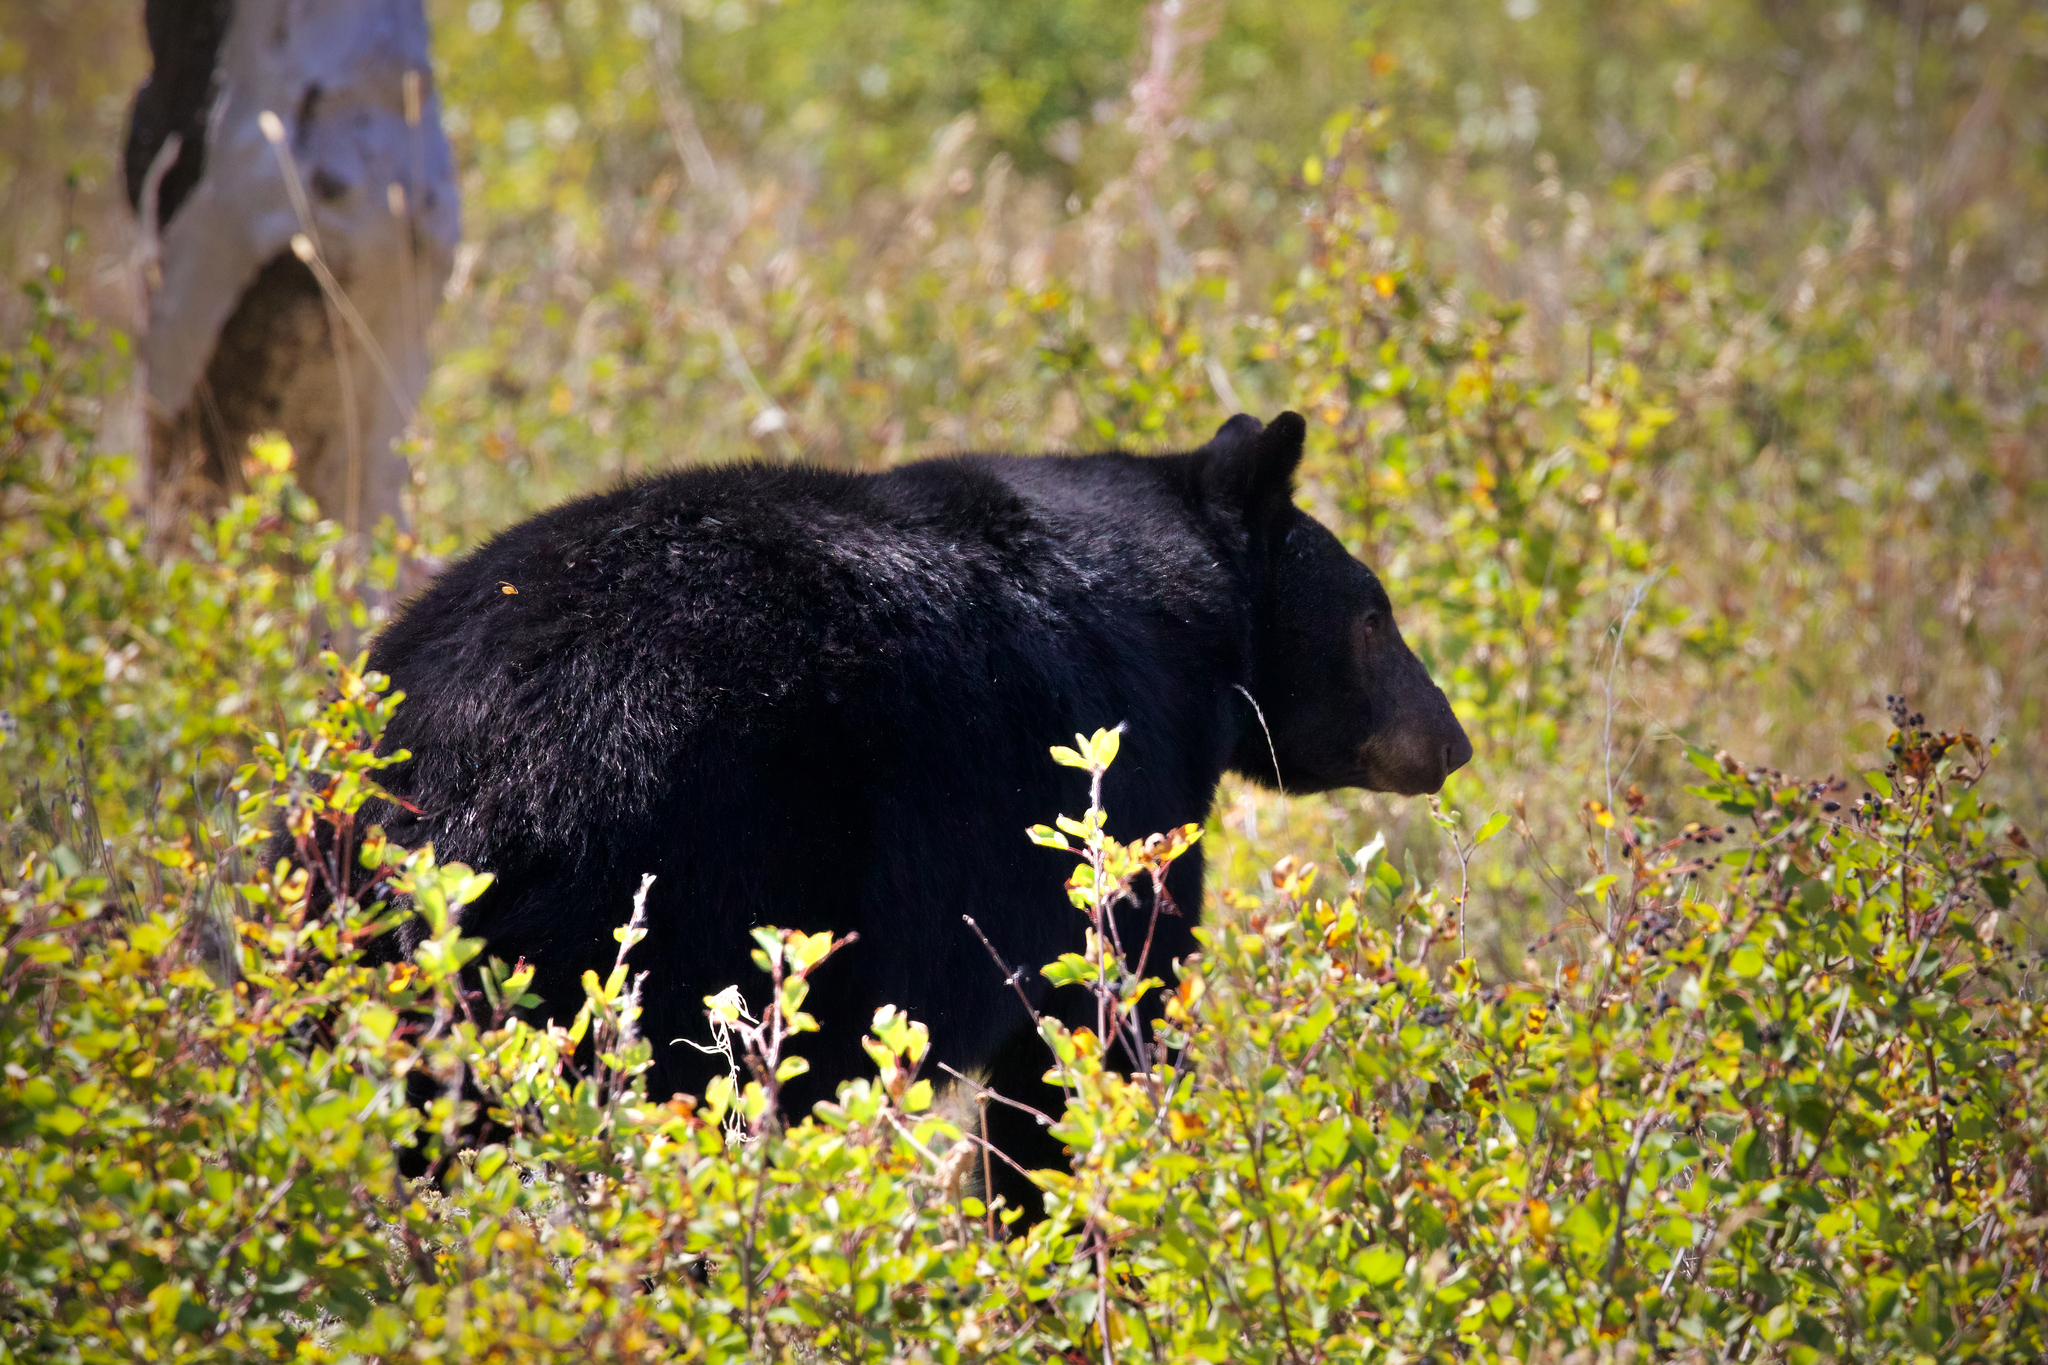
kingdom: Animalia
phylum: Chordata
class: Mammalia
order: Carnivora
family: Ursidae
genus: Ursus
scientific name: Ursus americanus
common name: American black bear
